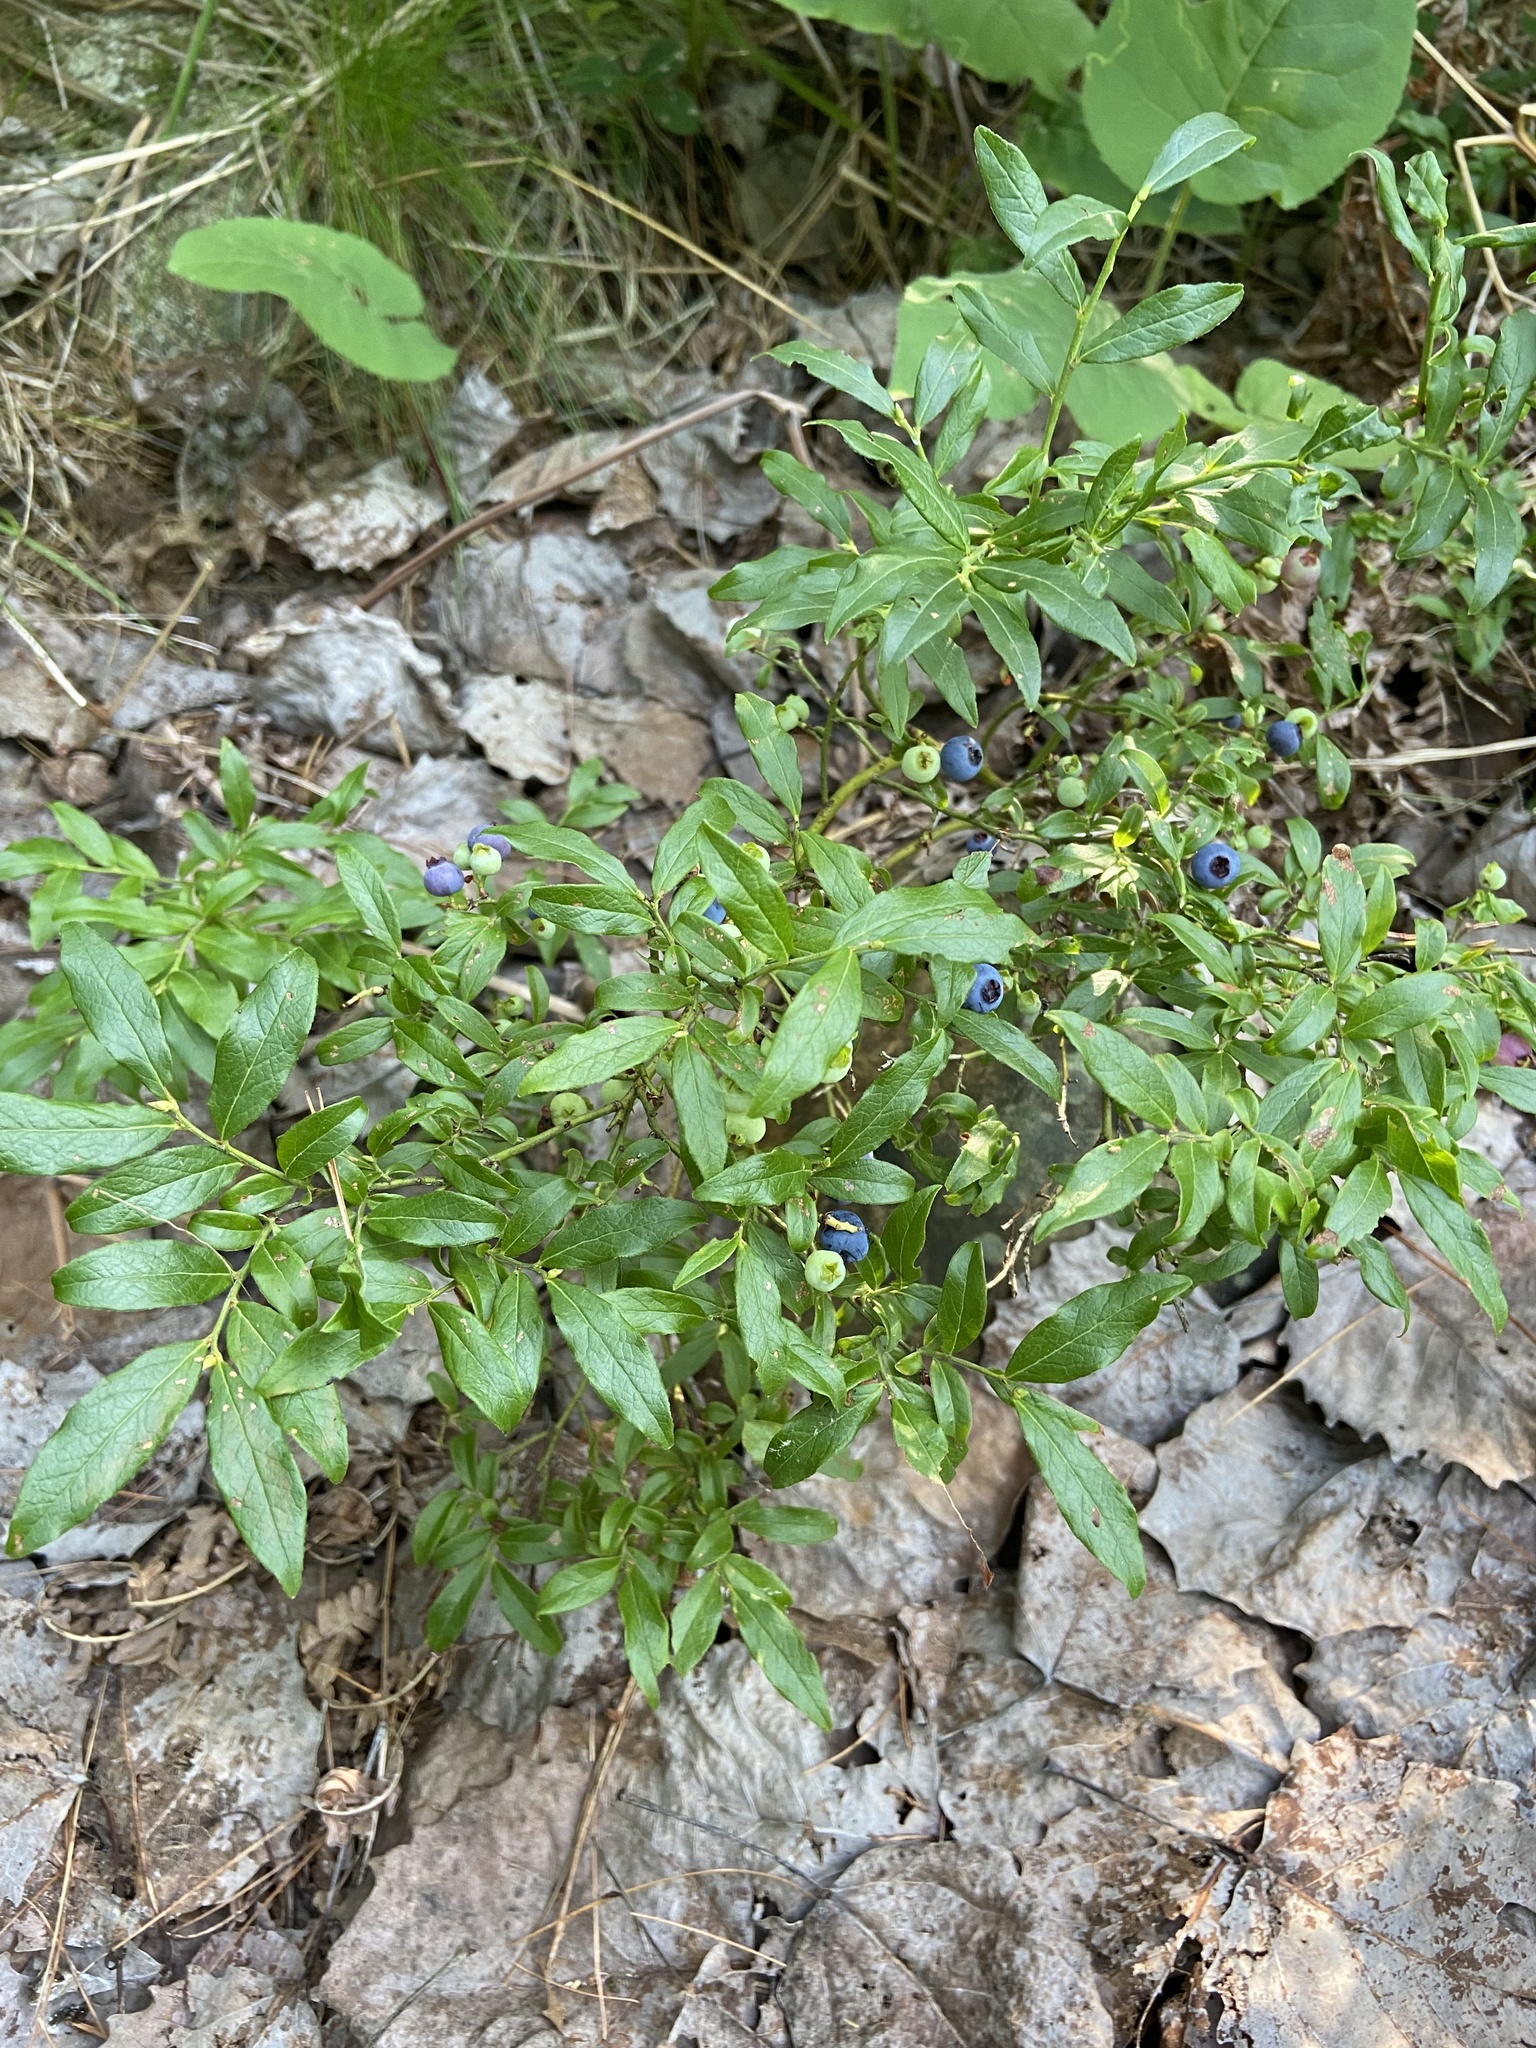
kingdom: Plantae
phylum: Tracheophyta
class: Magnoliopsida
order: Ericales
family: Ericaceae
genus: Vaccinium
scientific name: Vaccinium angustifolium
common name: Early lowbush blueberry
